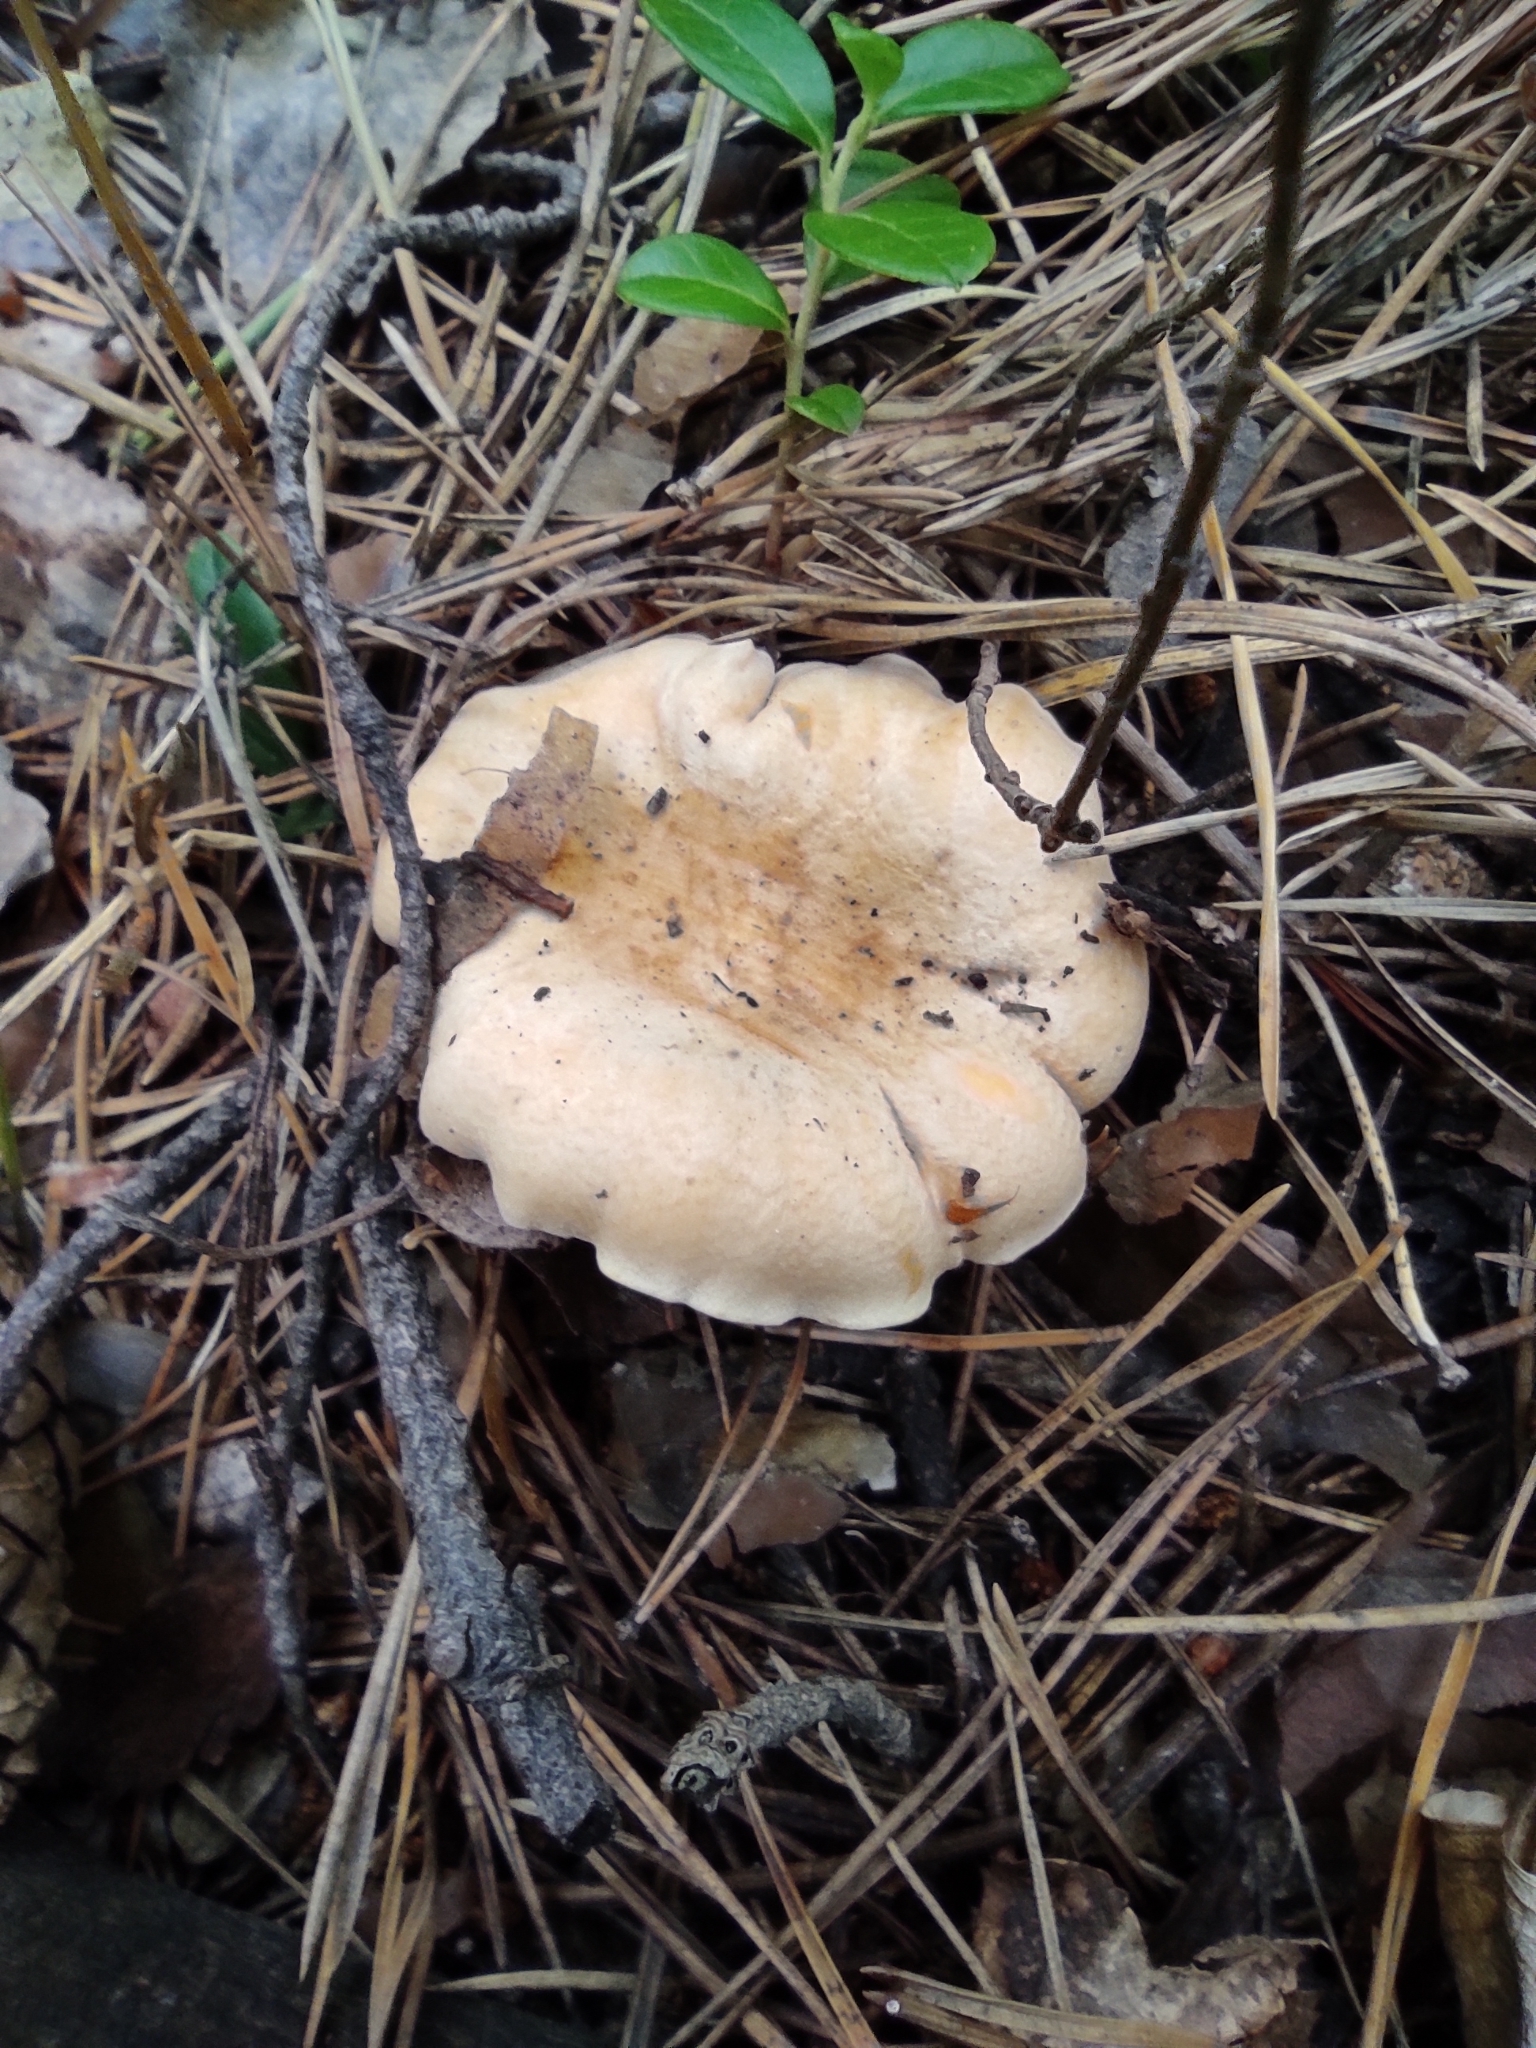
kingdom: Fungi
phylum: Basidiomycota
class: Agaricomycetes
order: Cantharellales
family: Hydnaceae
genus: Cantharellus
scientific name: Cantharellus cibarius
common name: Chanterelle
